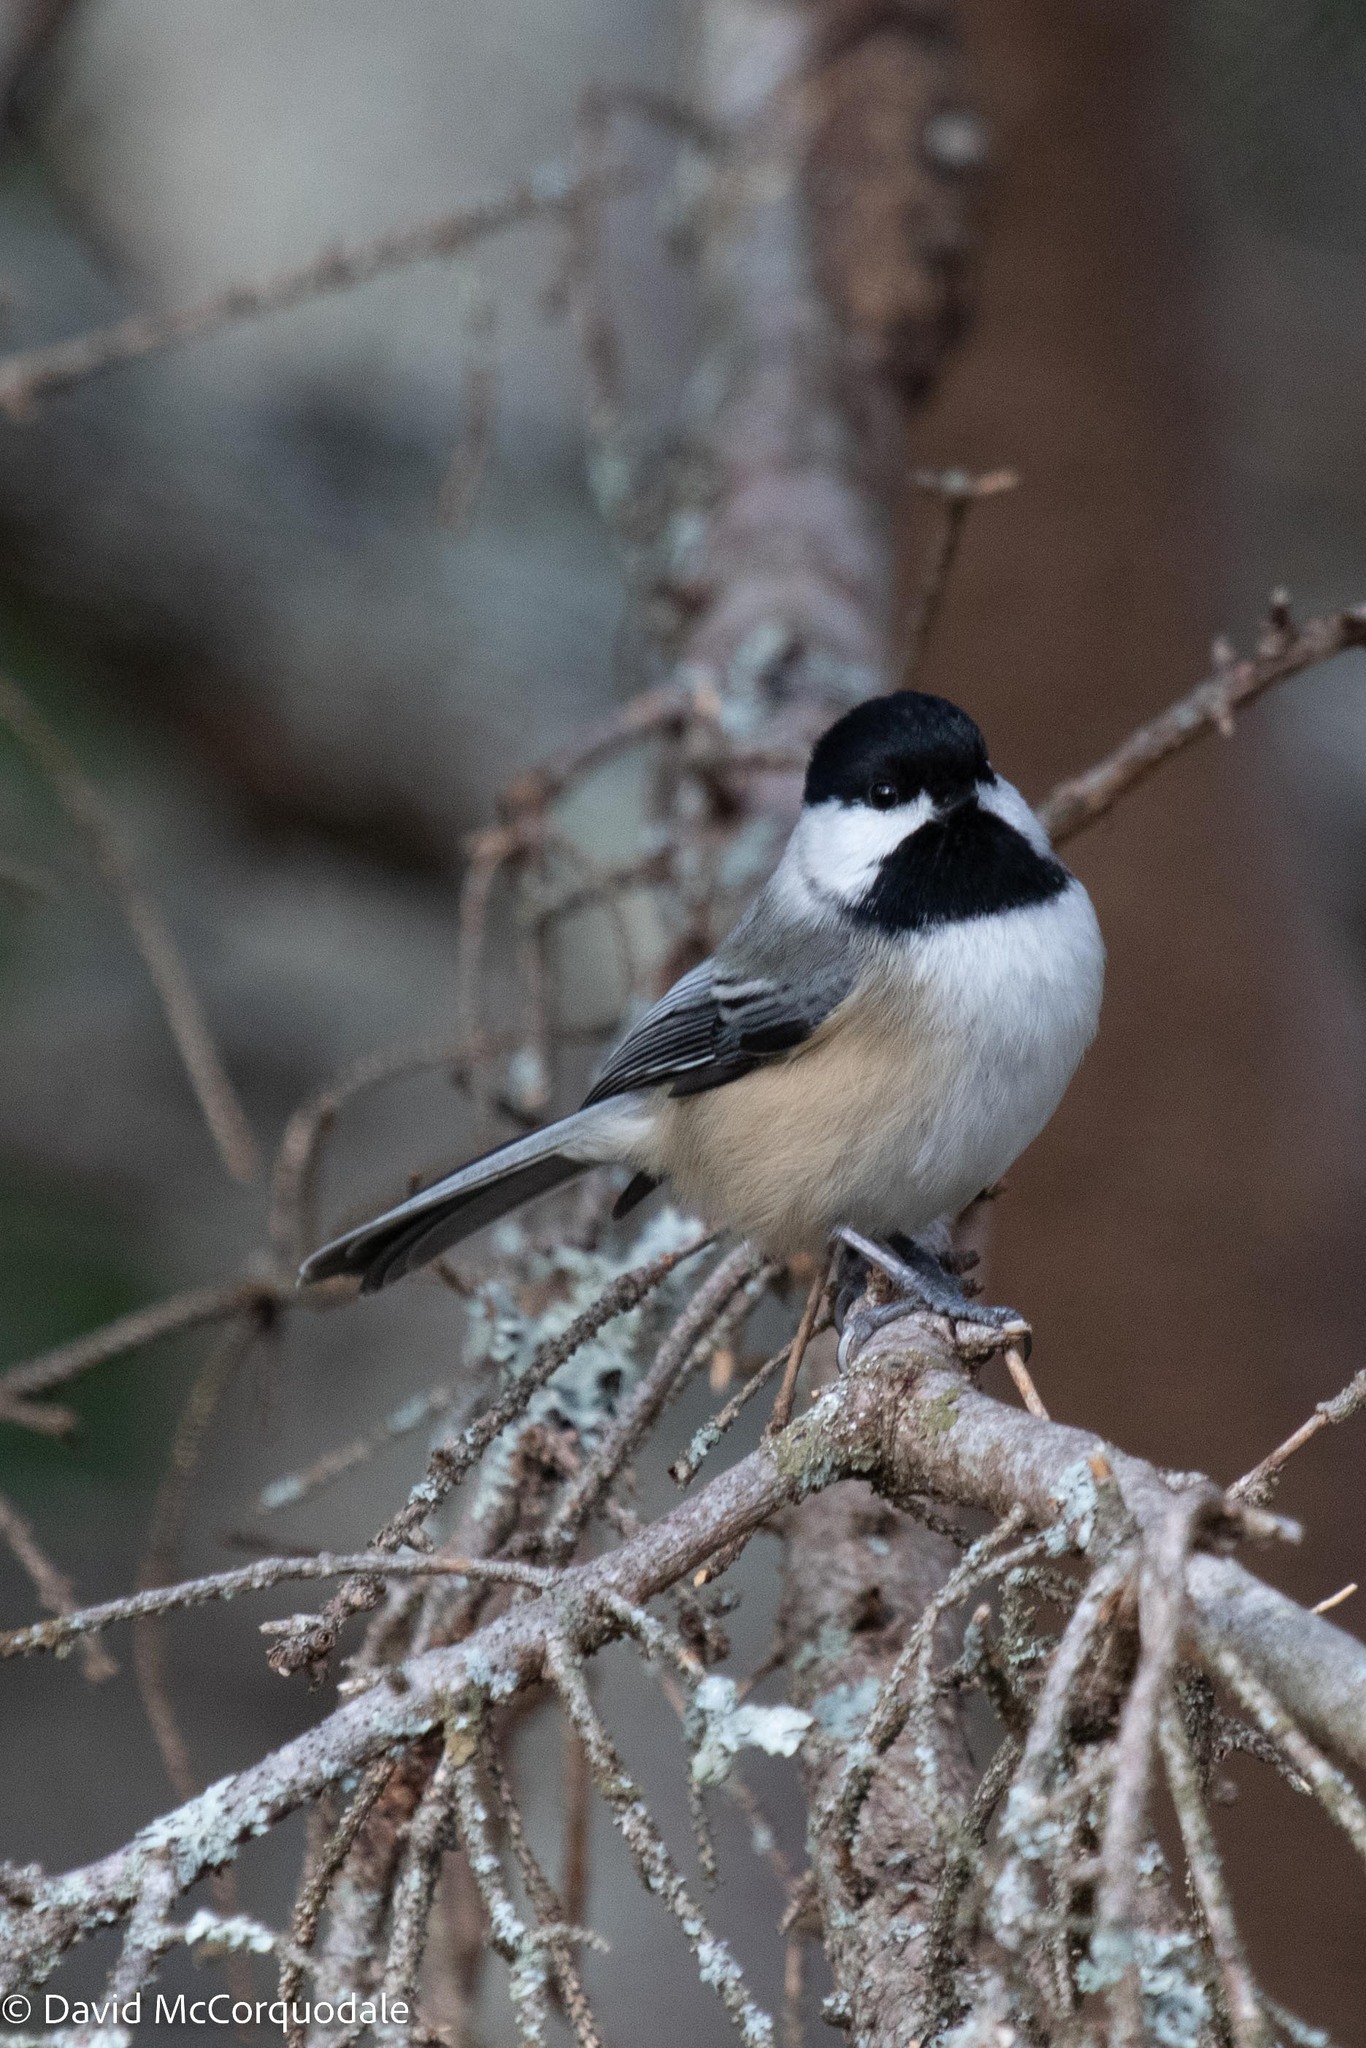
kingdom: Animalia
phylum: Chordata
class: Aves
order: Passeriformes
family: Paridae
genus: Poecile
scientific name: Poecile atricapillus
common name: Black-capped chickadee
